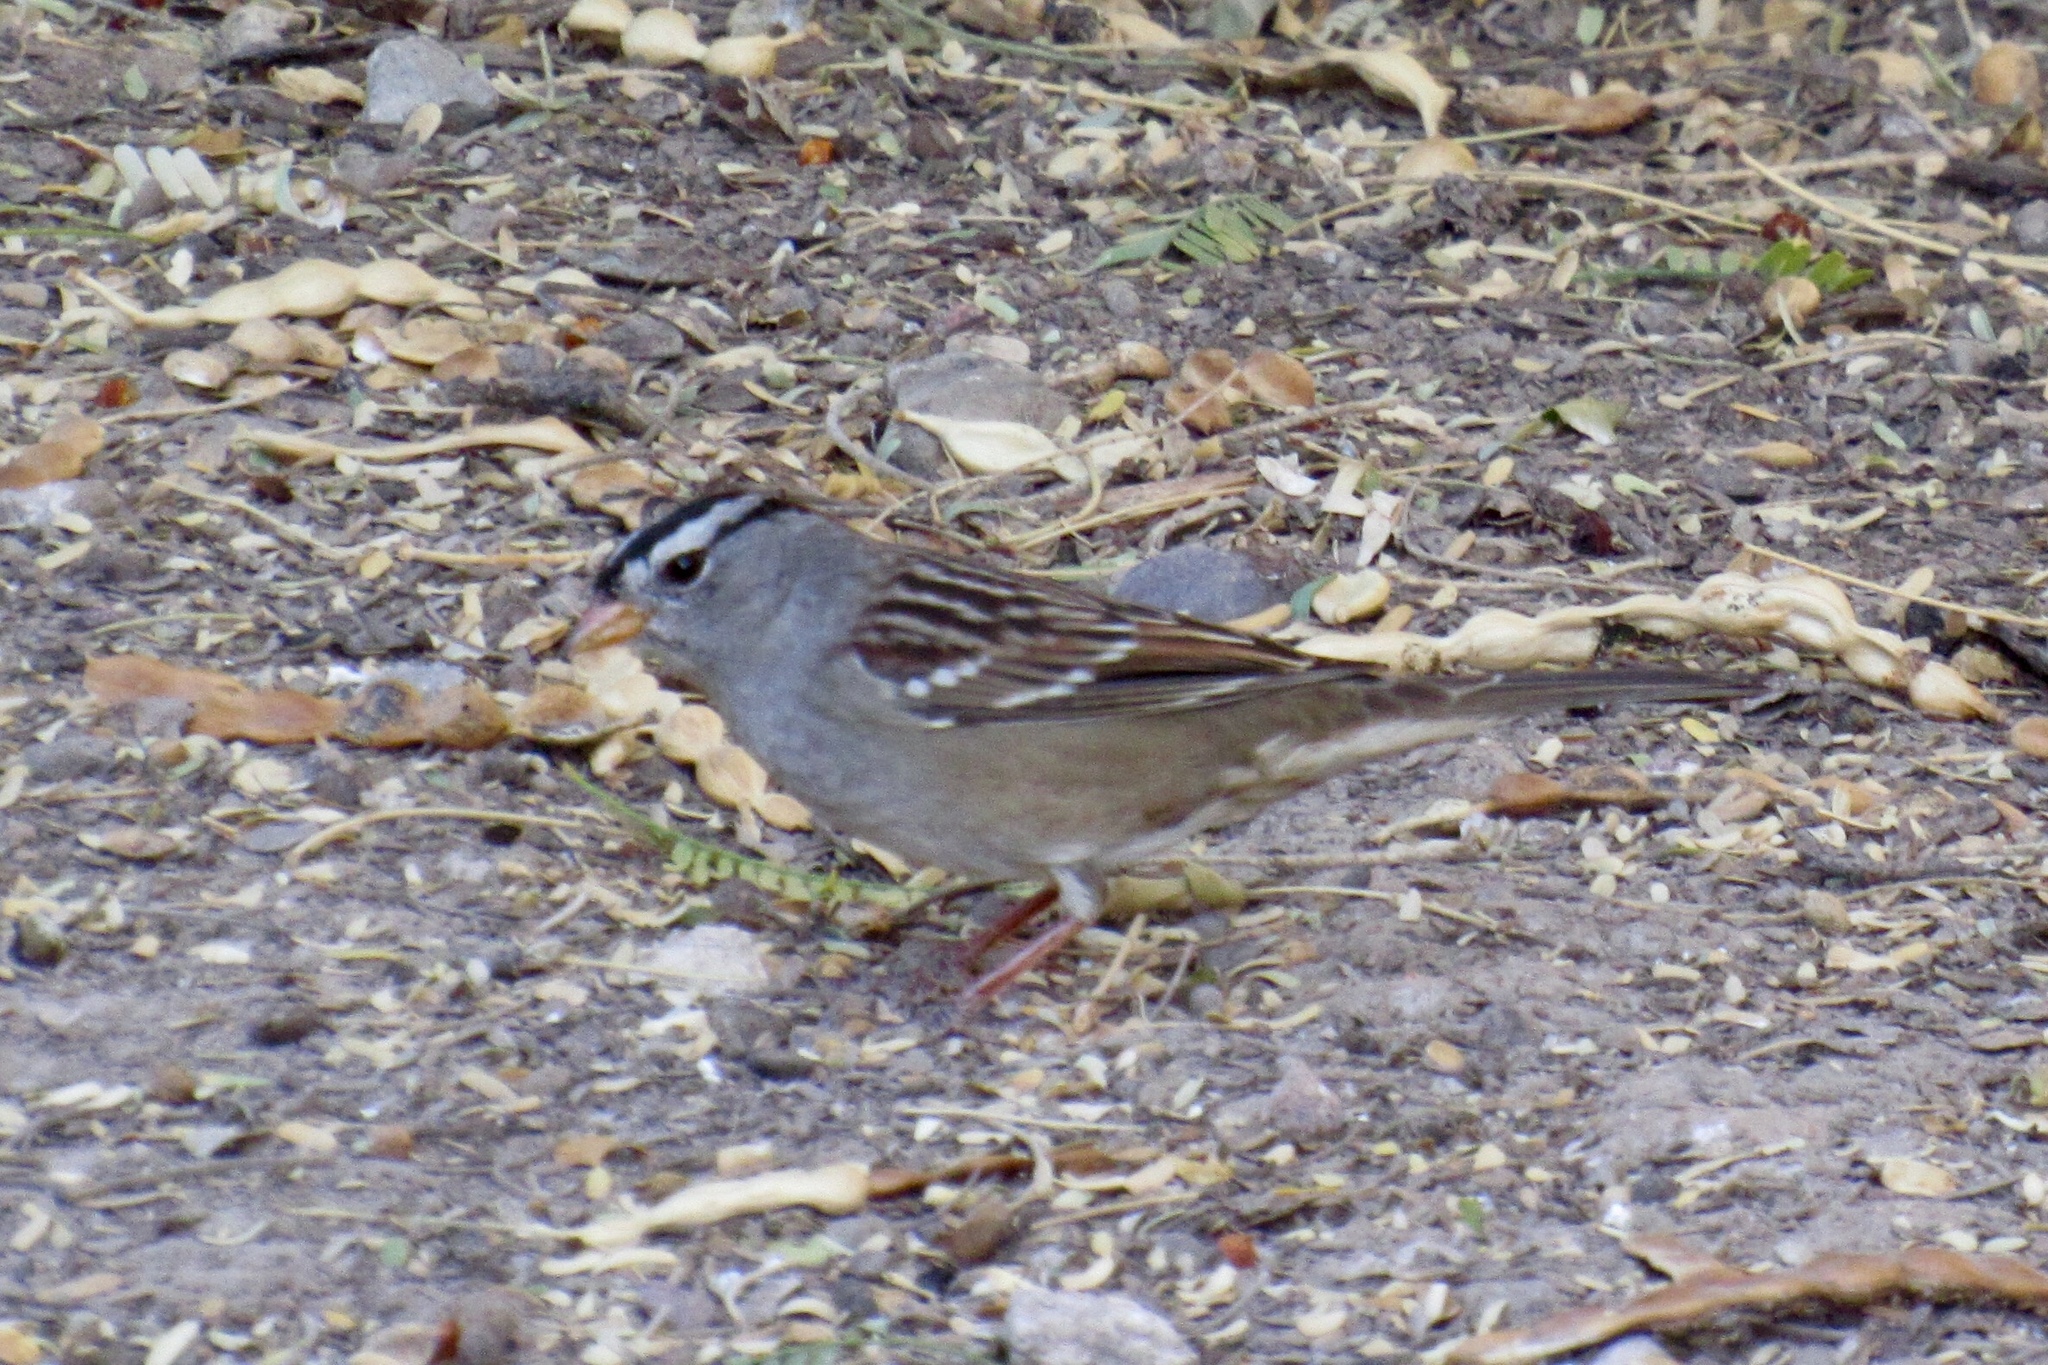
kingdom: Animalia
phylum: Chordata
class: Aves
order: Passeriformes
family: Passerellidae
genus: Zonotrichia
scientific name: Zonotrichia leucophrys
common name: White-crowned sparrow
